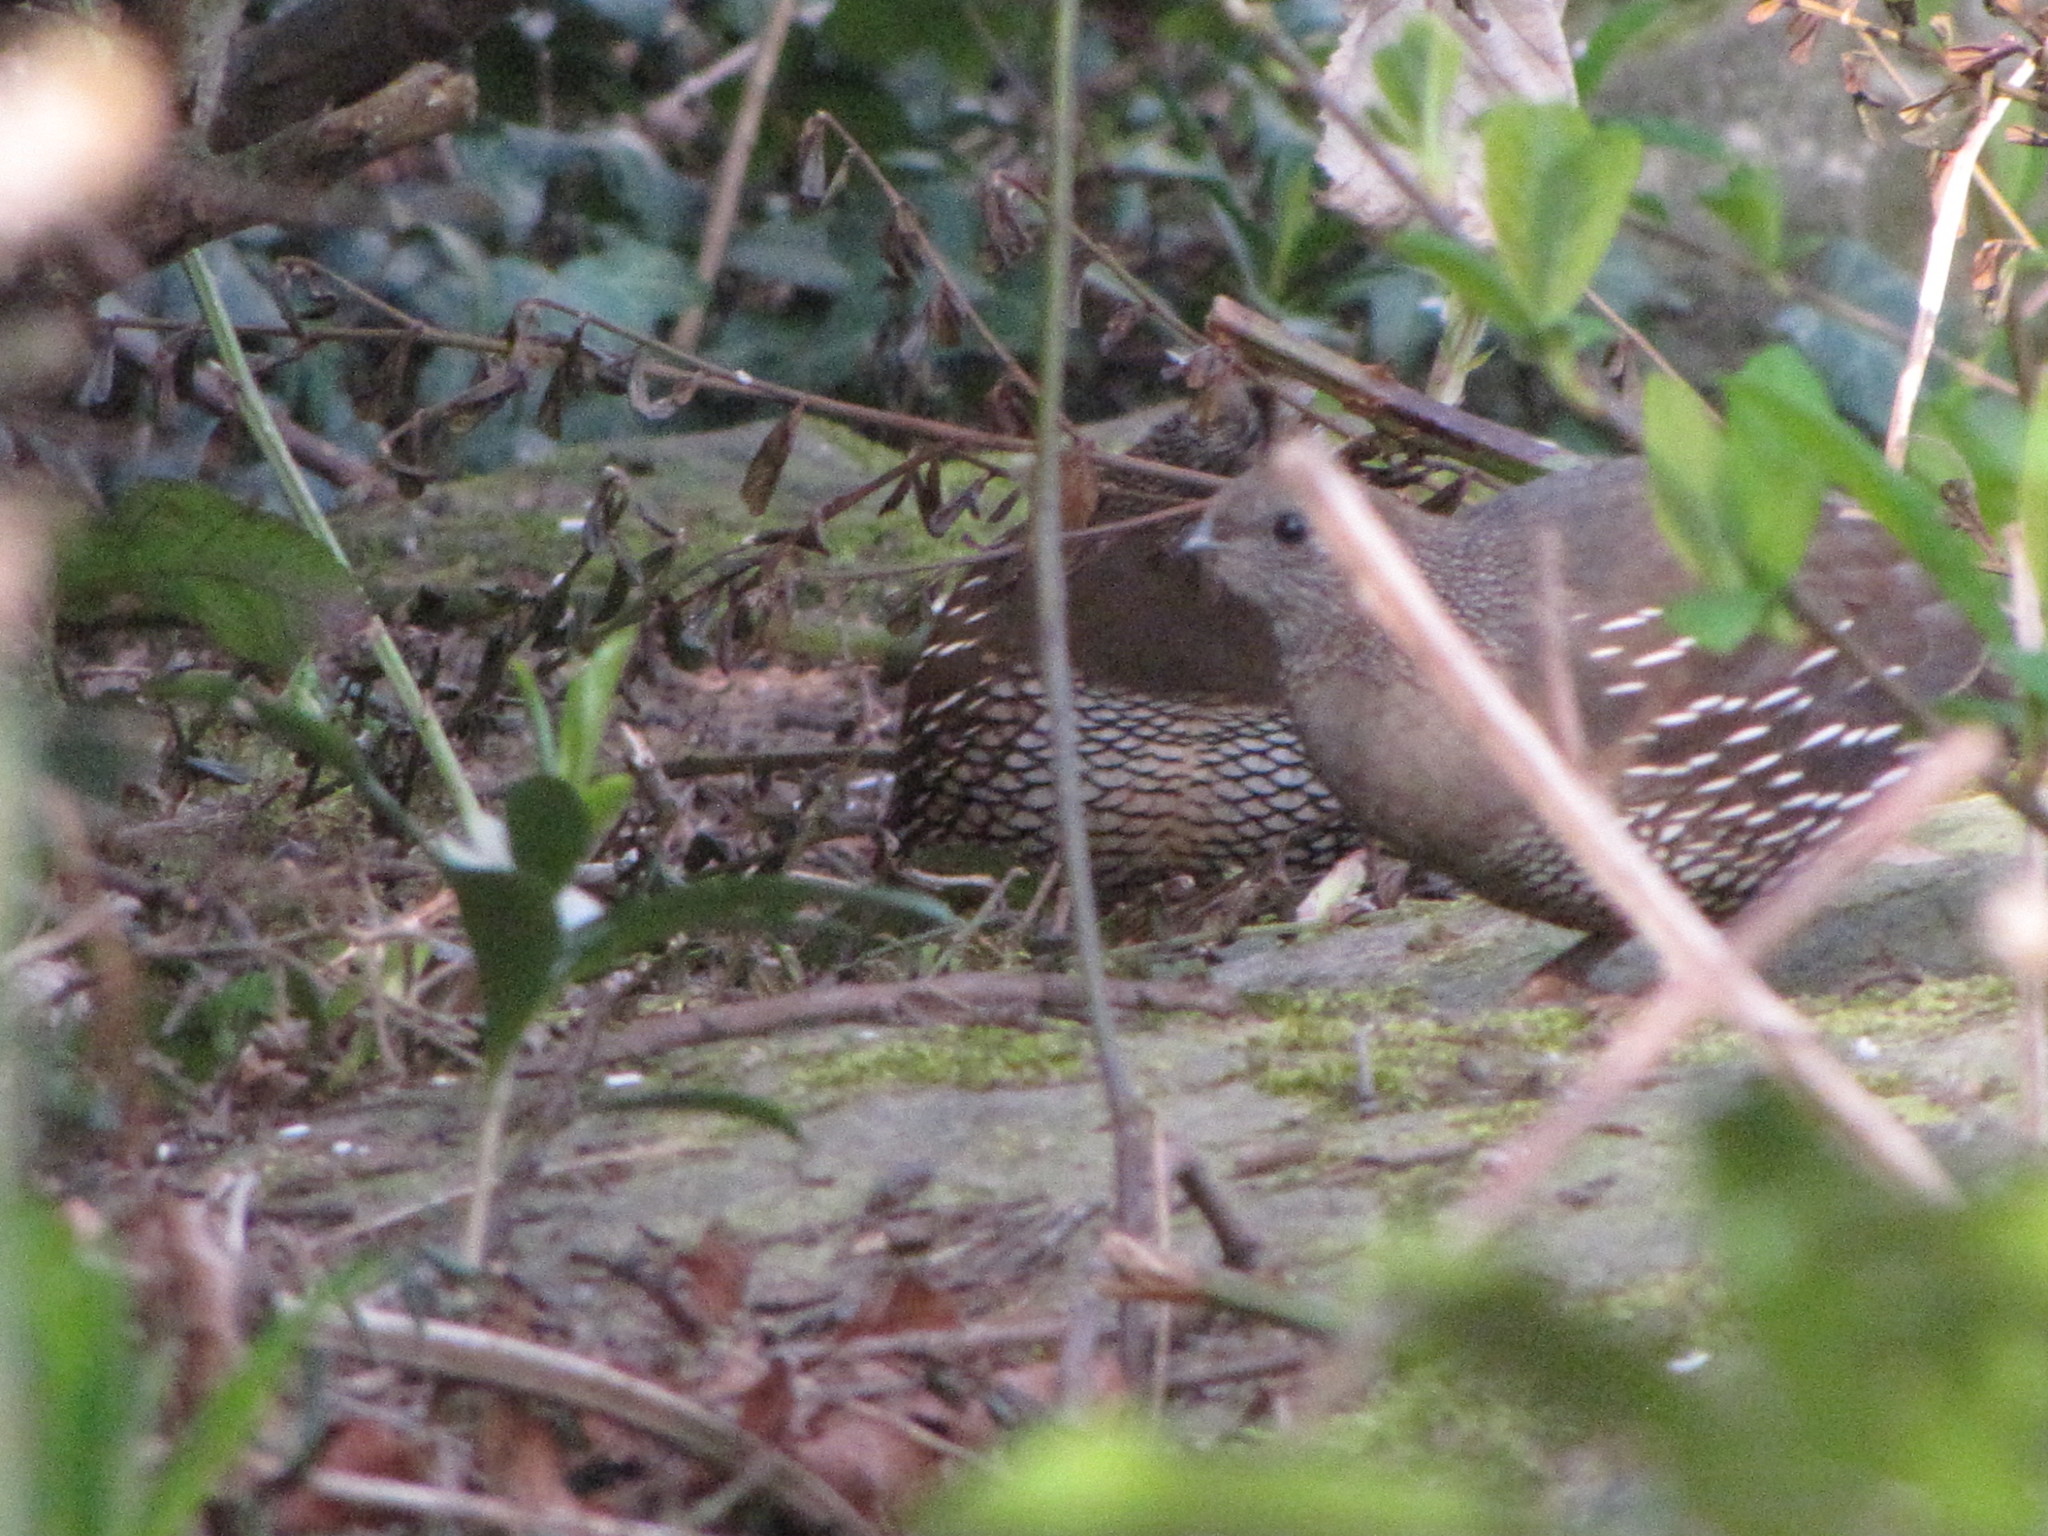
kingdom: Animalia
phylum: Chordata
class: Aves
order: Galliformes
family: Odontophoridae
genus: Callipepla
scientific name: Callipepla californica
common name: California quail
